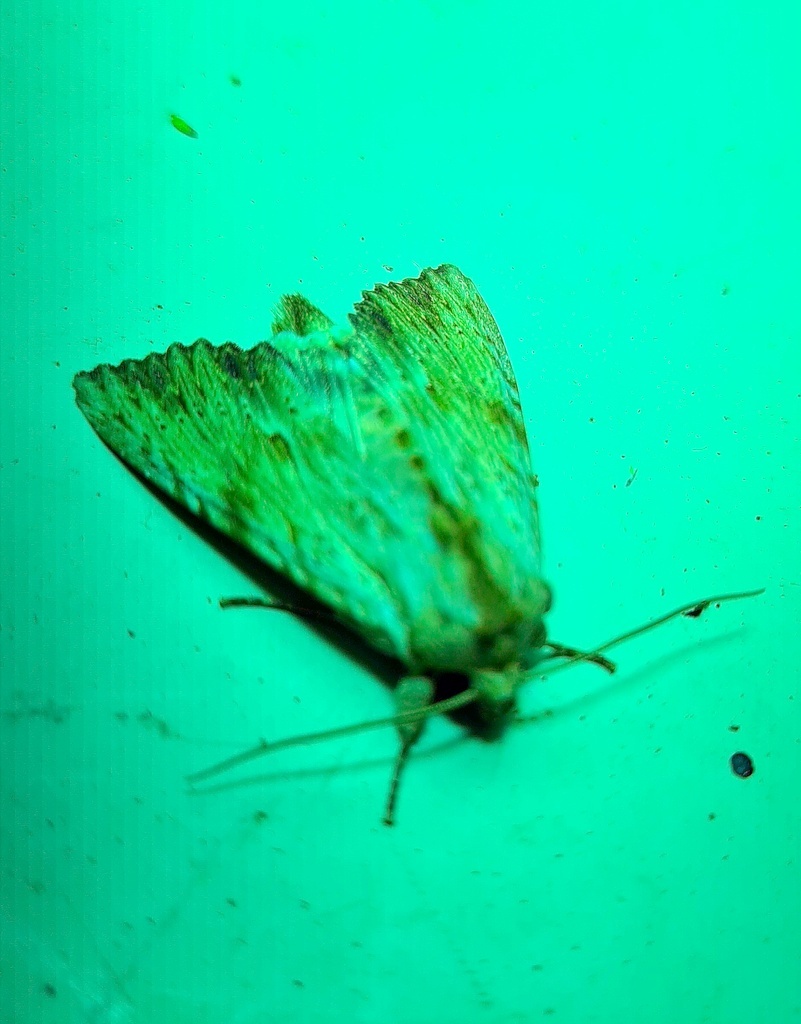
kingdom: Animalia
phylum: Arthropoda
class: Insecta
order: Lepidoptera
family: Noctuidae
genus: Apamea
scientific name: Apamea lithoxylaea
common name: Light arches
